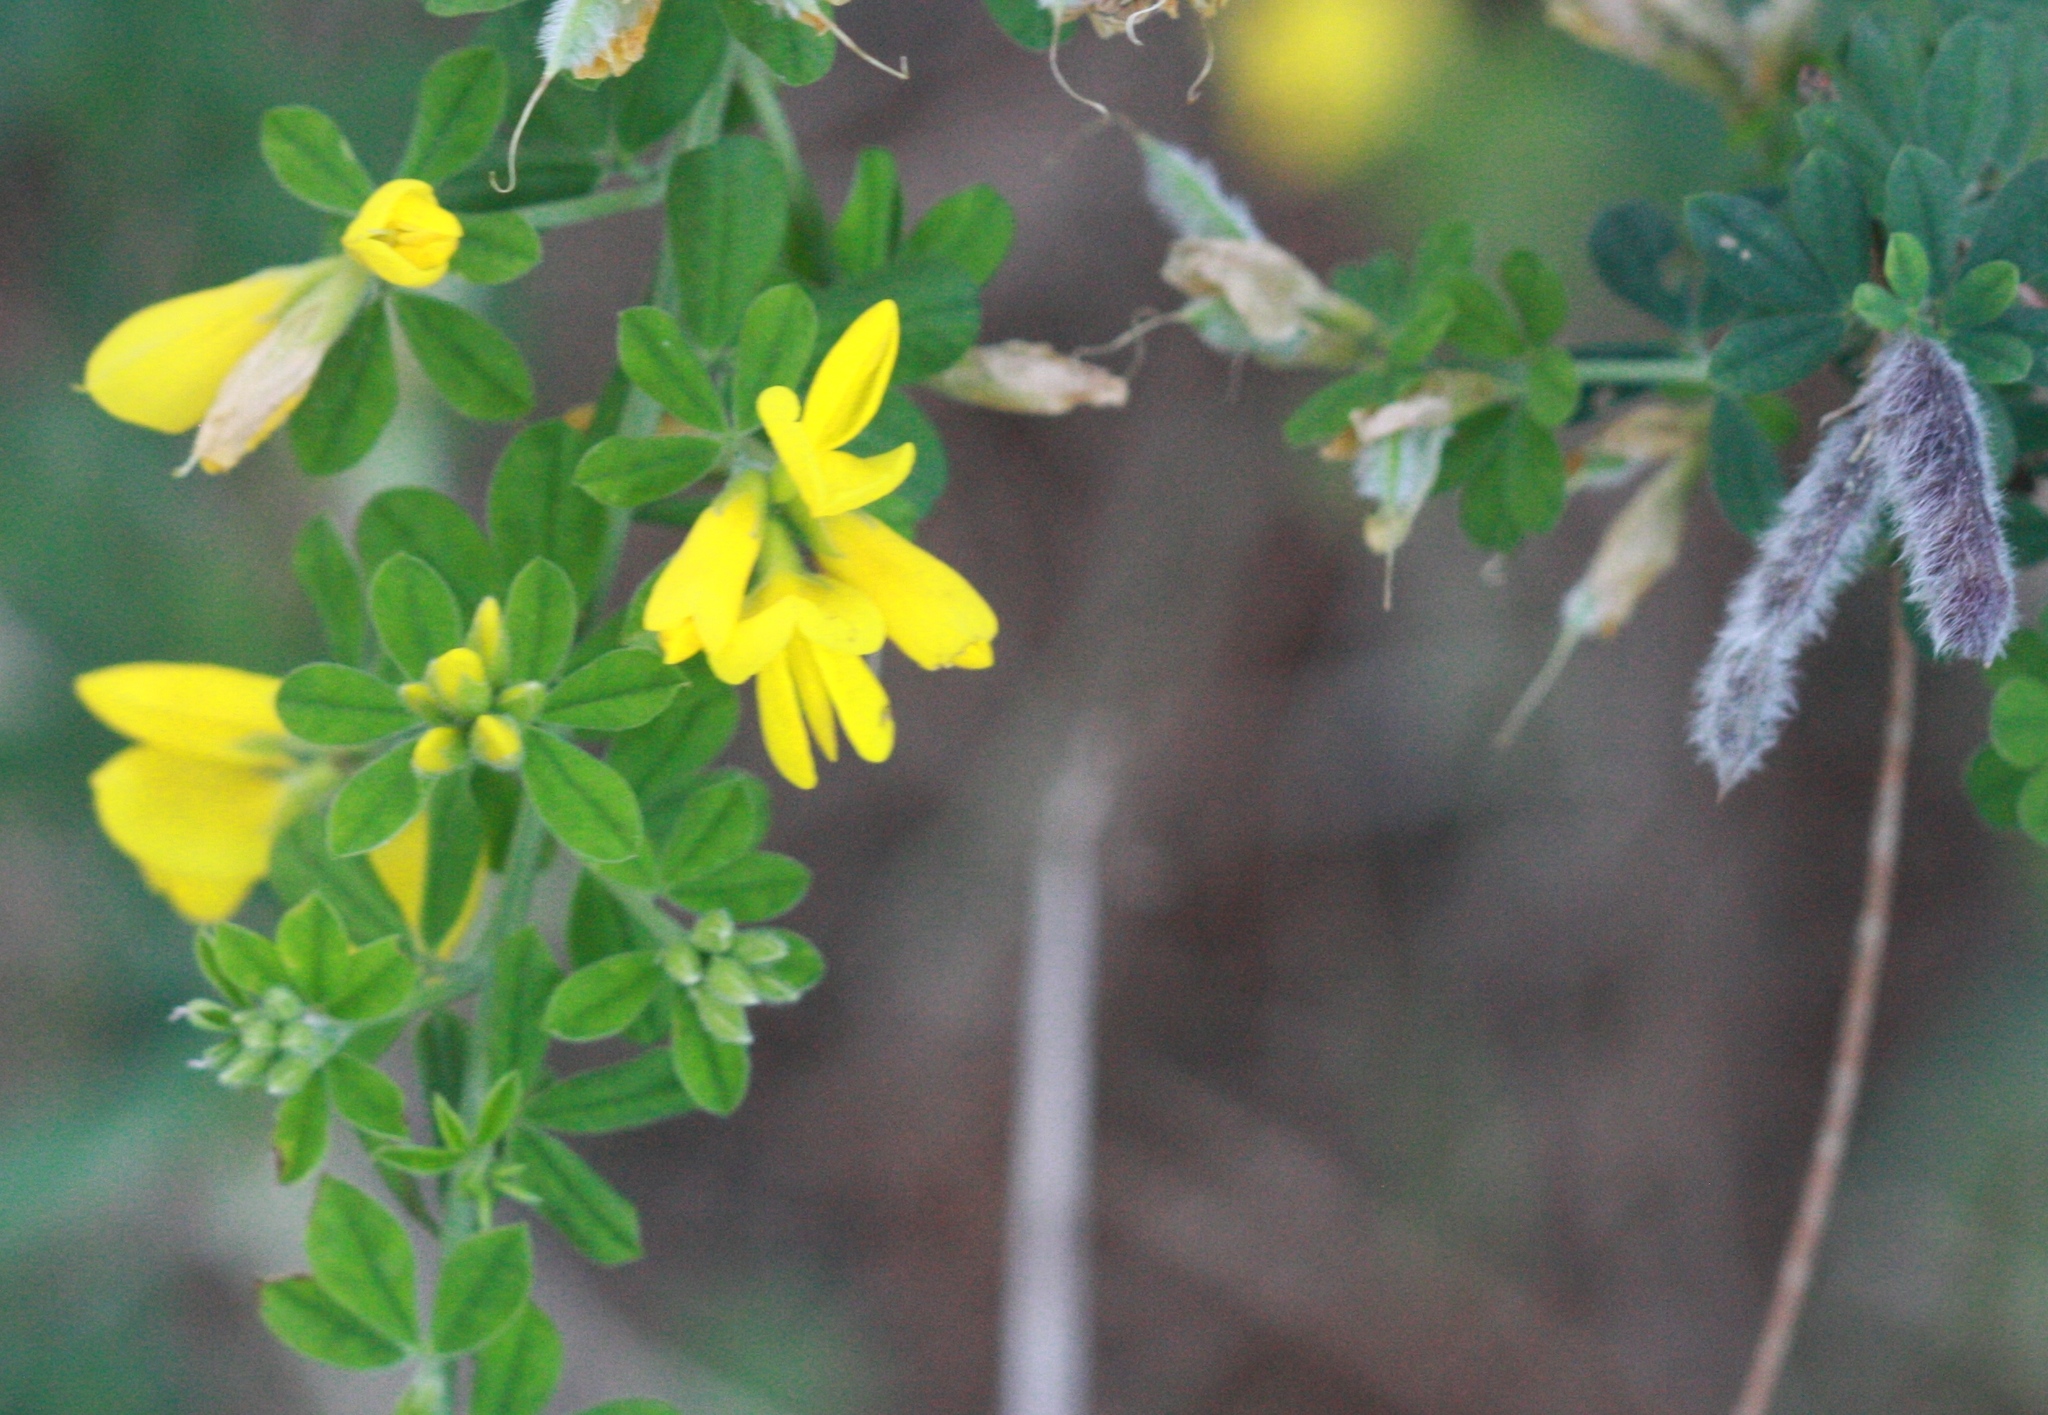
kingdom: Plantae
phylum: Tracheophyta
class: Magnoliopsida
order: Fabales
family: Fabaceae
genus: Genista
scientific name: Genista monspessulana
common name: Montpellier broom
